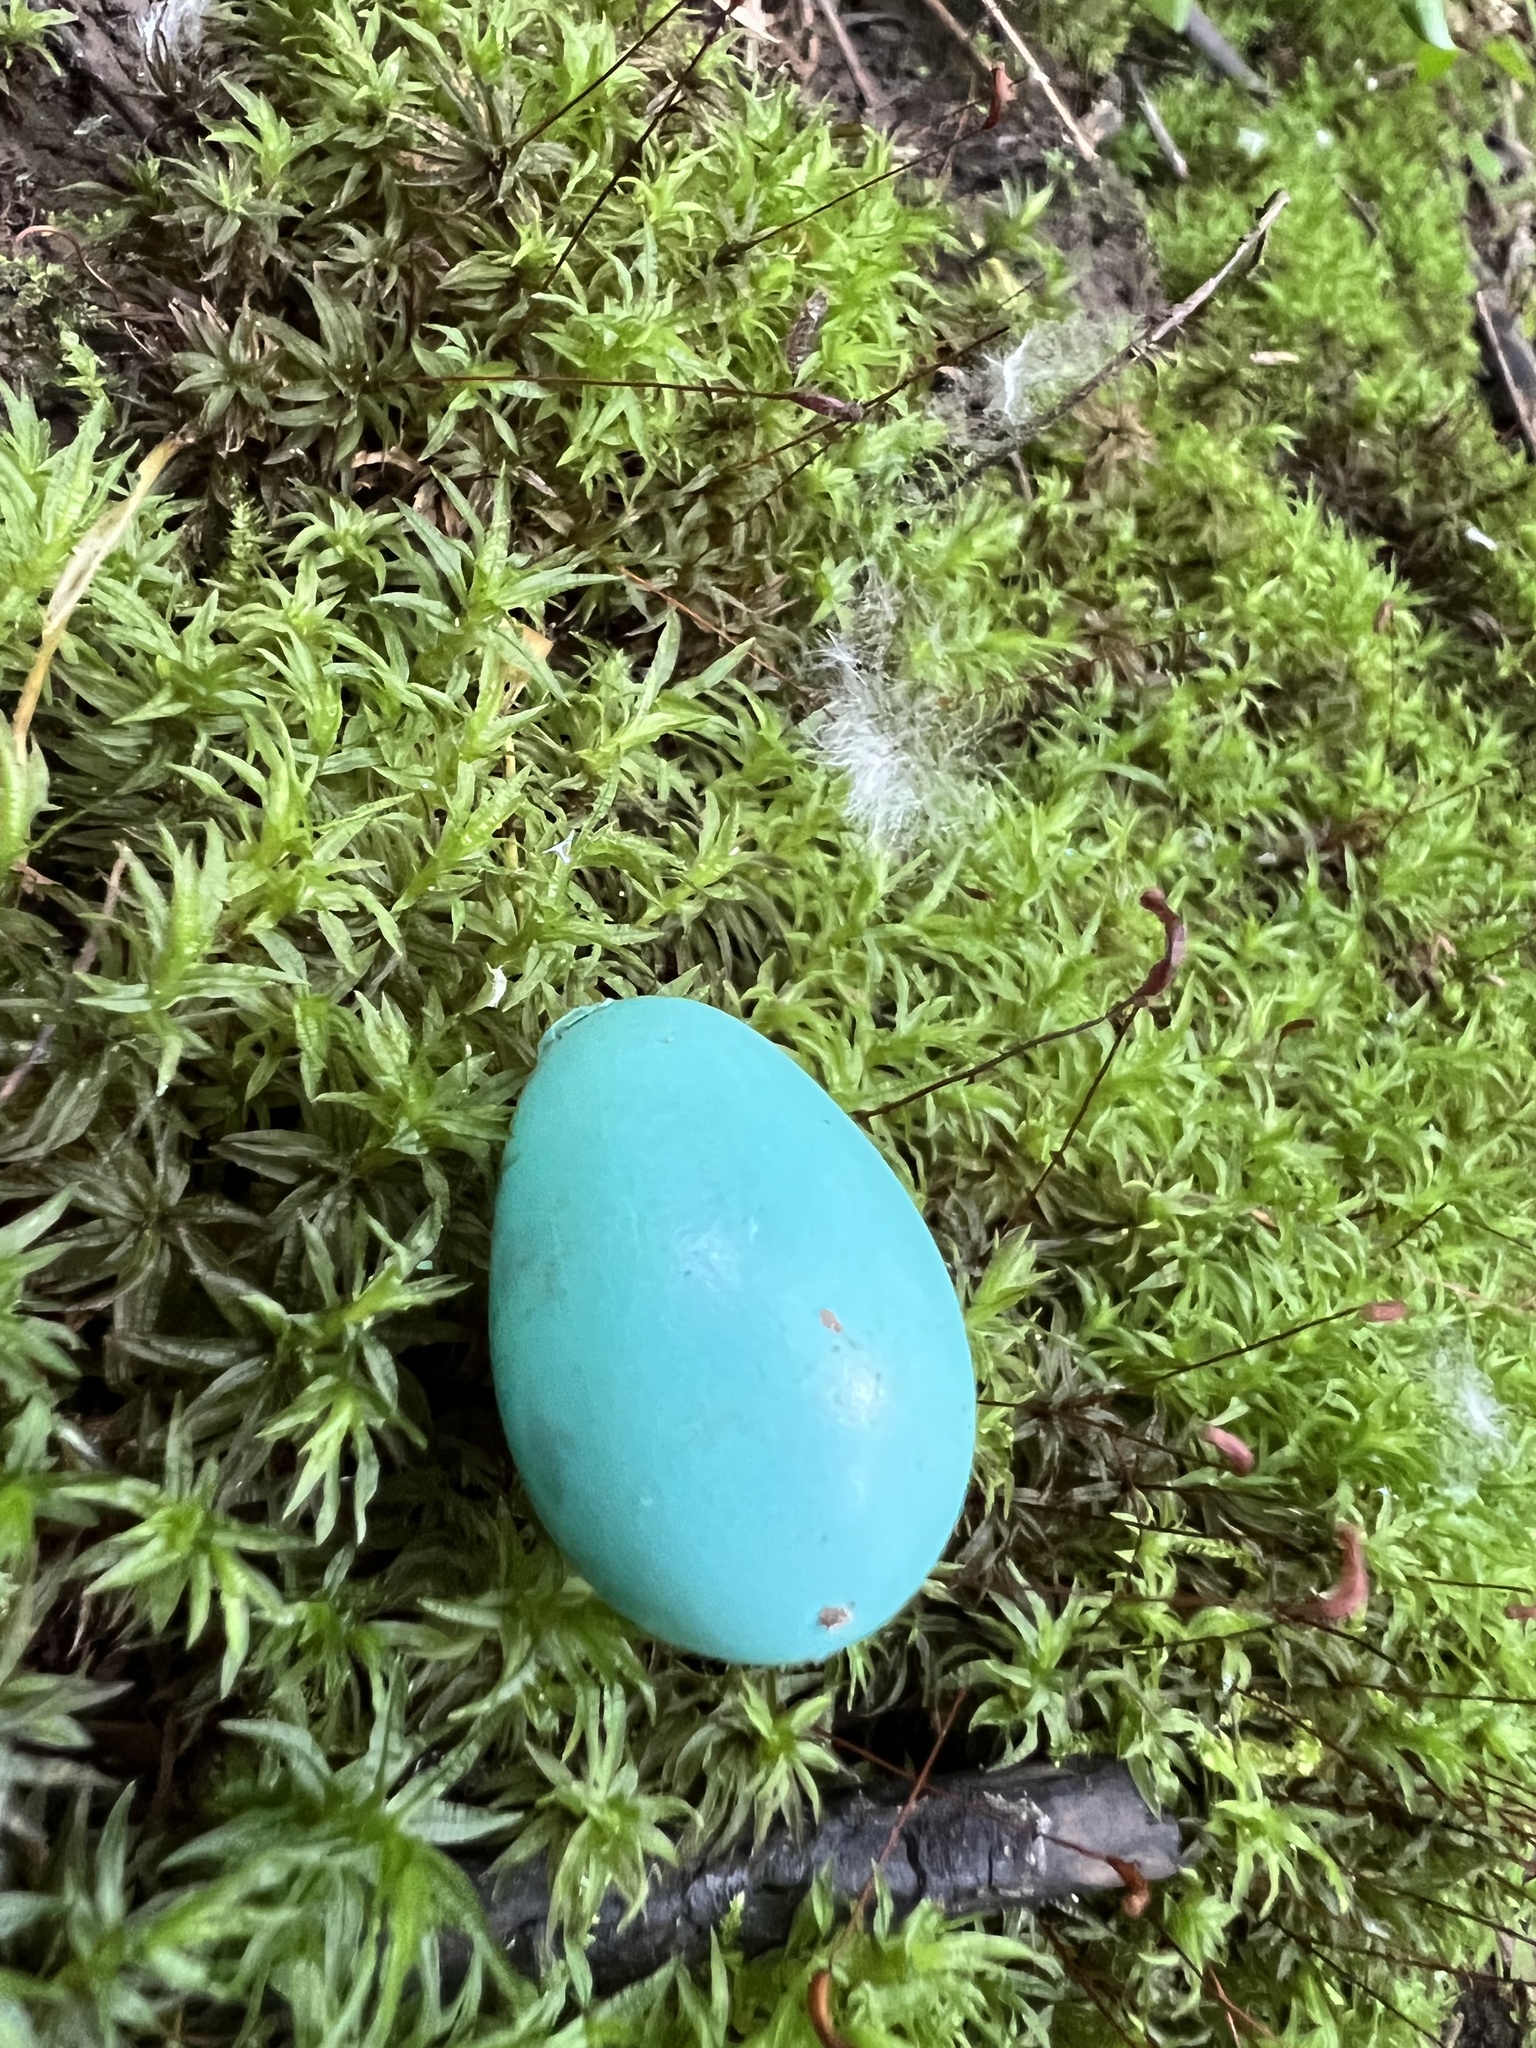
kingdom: Animalia
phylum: Chordata
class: Aves
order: Passeriformes
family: Turdidae
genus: Turdus
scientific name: Turdus migratorius
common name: American robin
